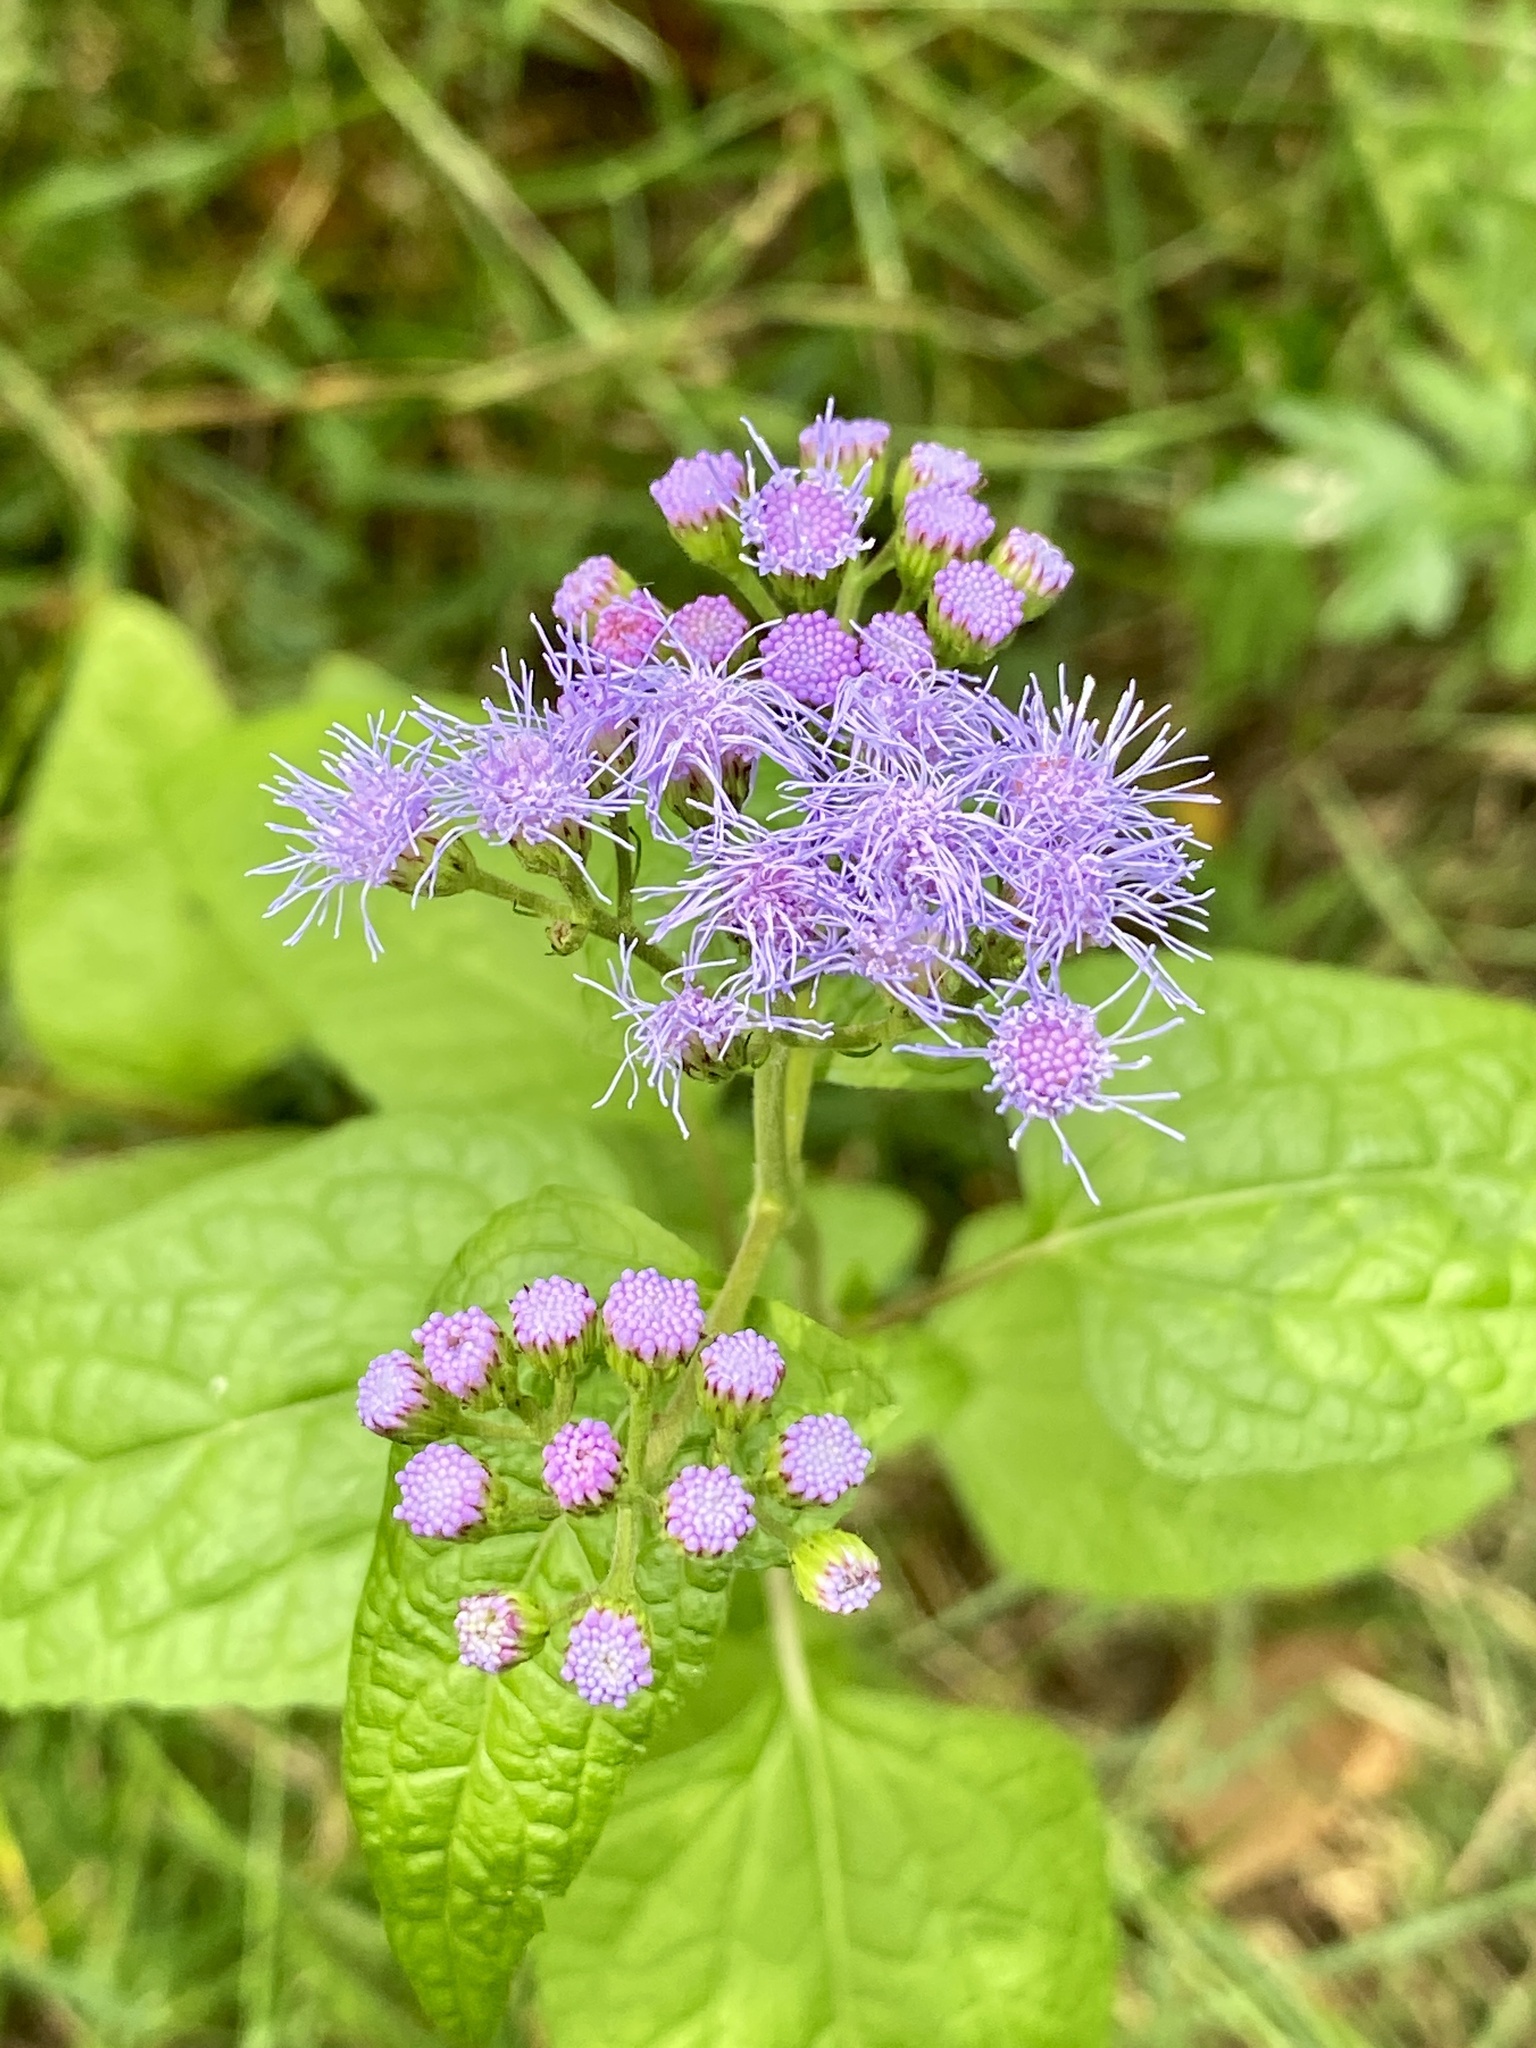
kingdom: Plantae
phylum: Tracheophyta
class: Magnoliopsida
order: Asterales
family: Asteraceae
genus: Conoclinium
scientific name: Conoclinium coelestinum
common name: Blue mistflower
